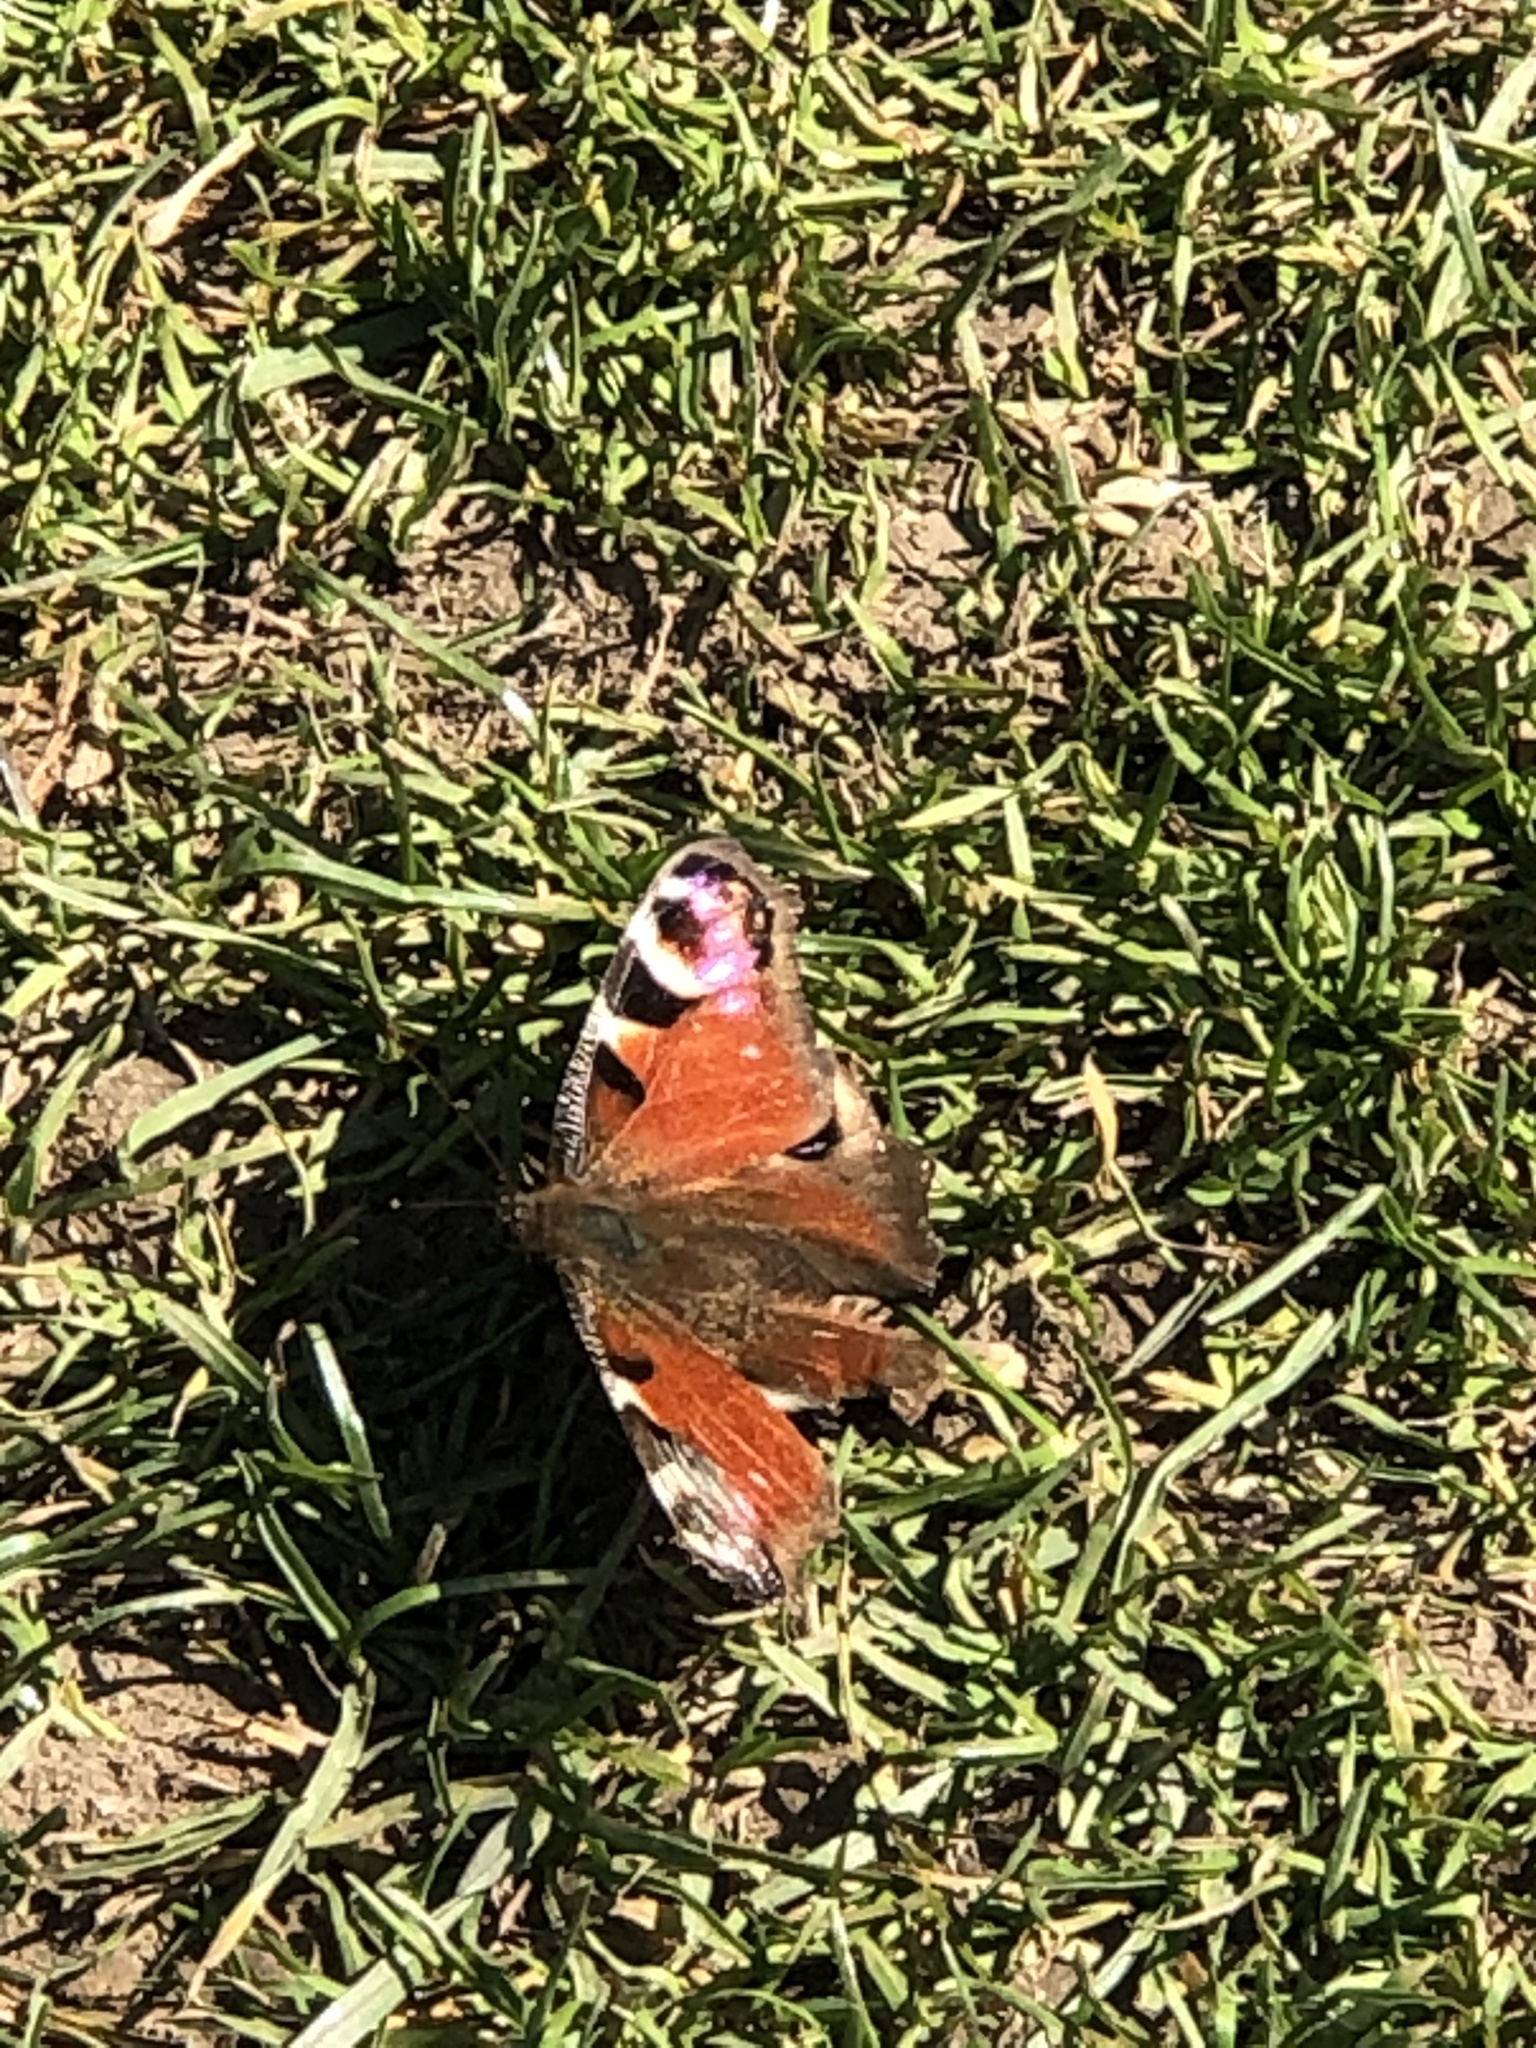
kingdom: Animalia
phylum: Arthropoda
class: Insecta
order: Lepidoptera
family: Nymphalidae
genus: Aglais
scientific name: Aglais io
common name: Peacock
